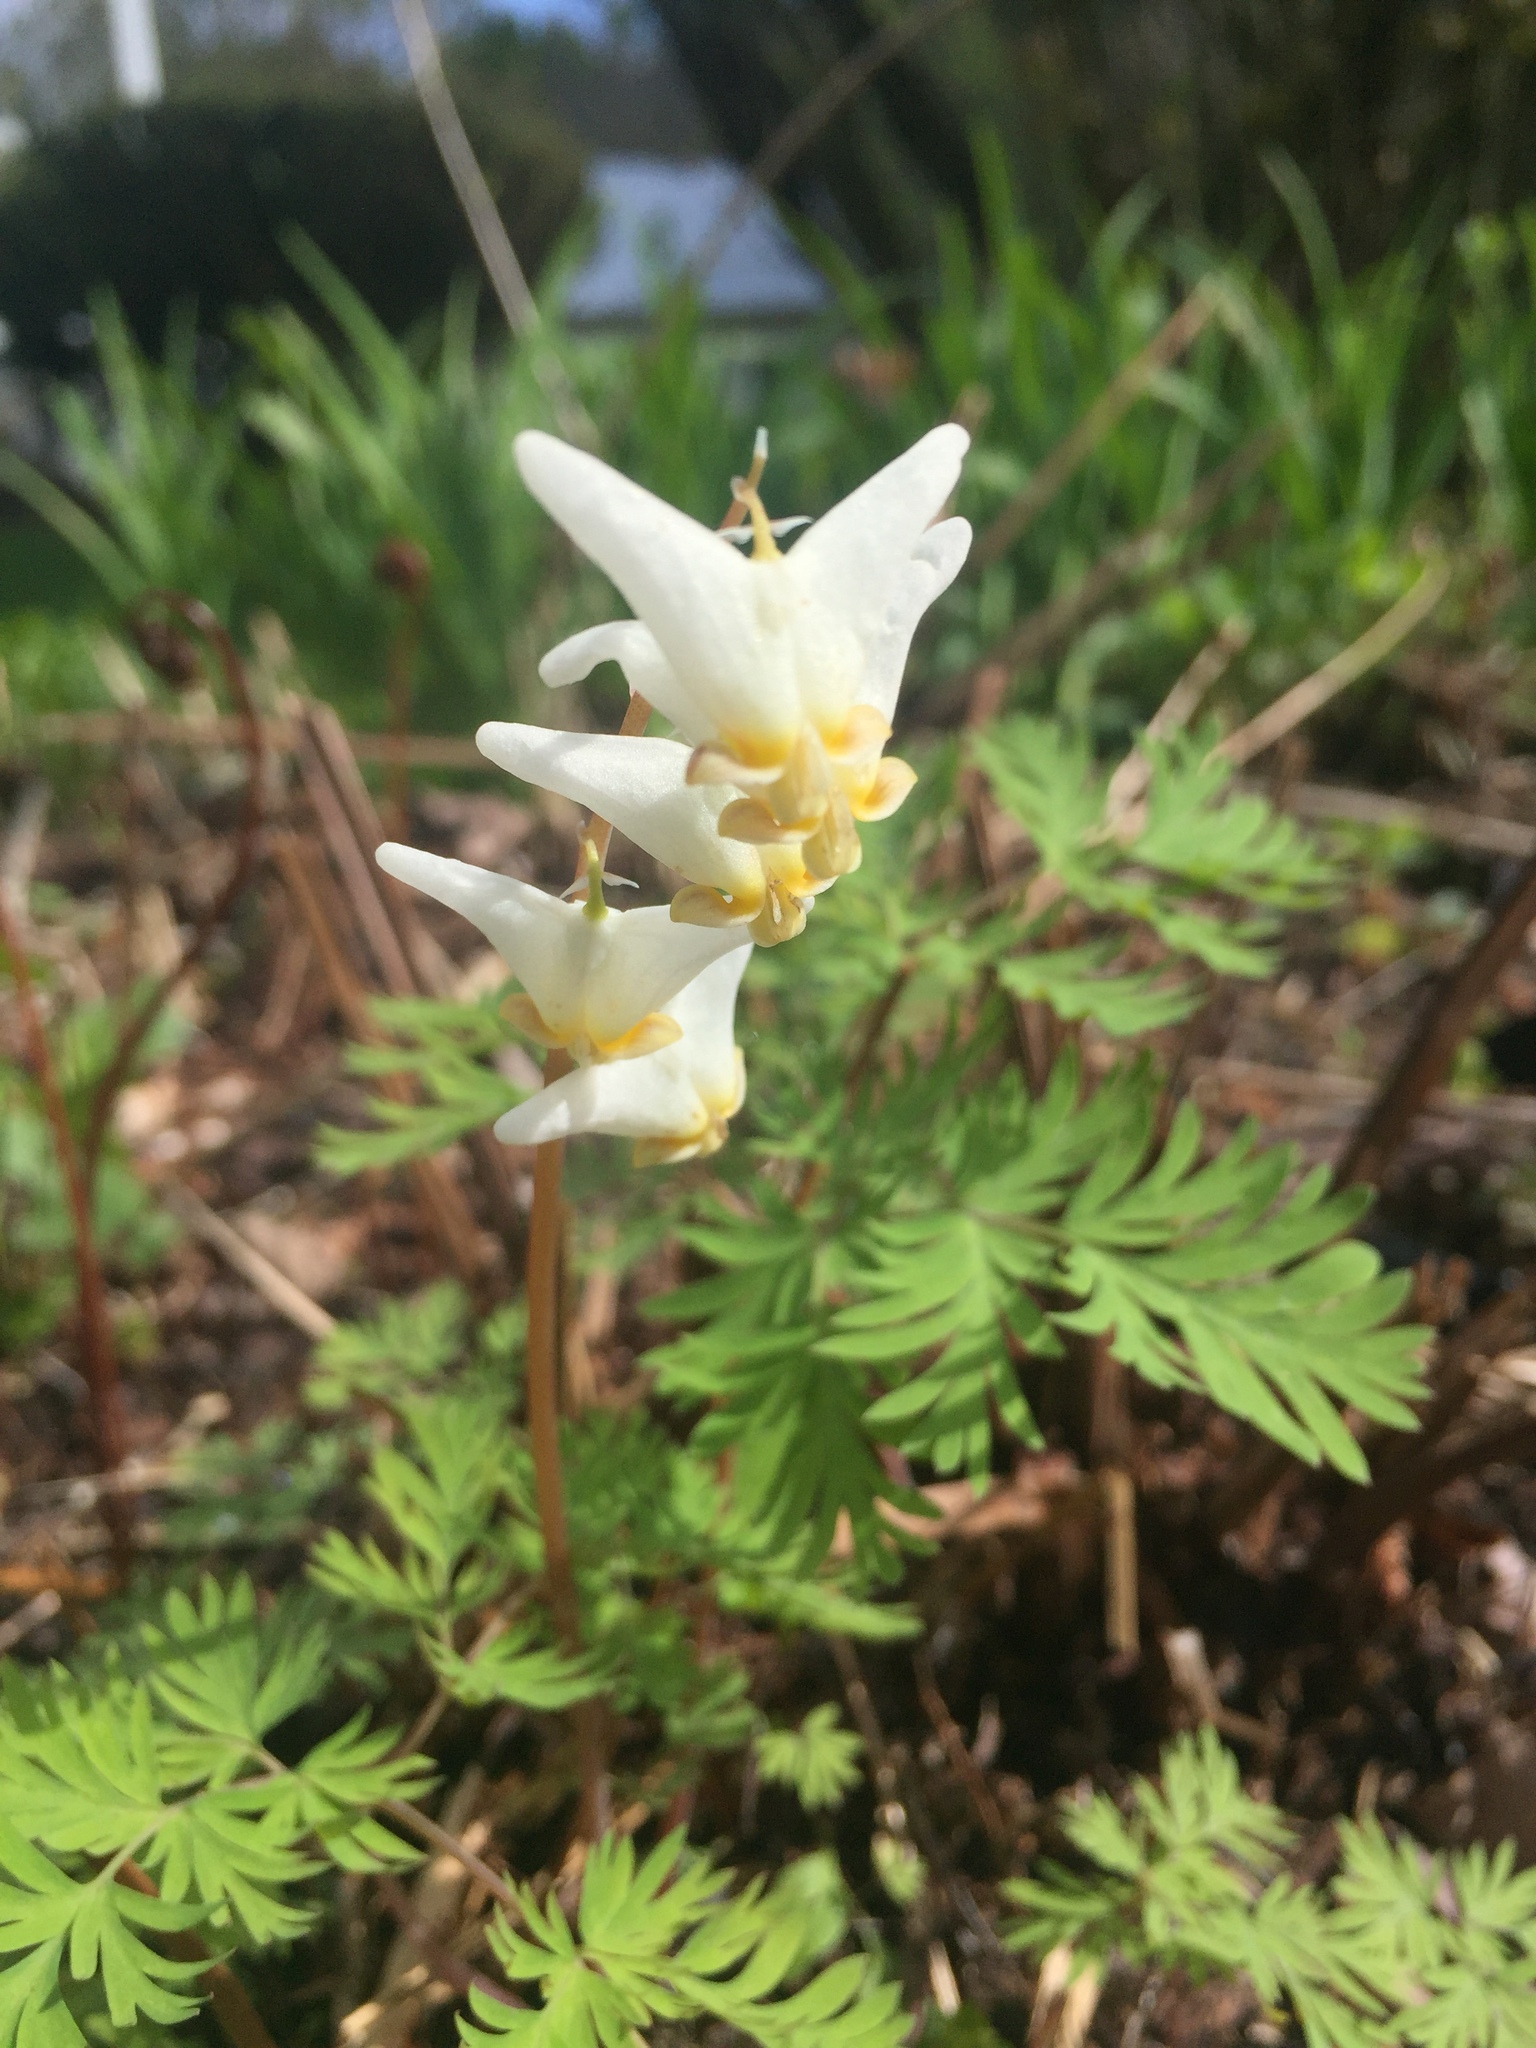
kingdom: Plantae
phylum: Tracheophyta
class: Magnoliopsida
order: Ranunculales
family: Papaveraceae
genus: Dicentra
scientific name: Dicentra cucullaria
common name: Dutchman's breeches
